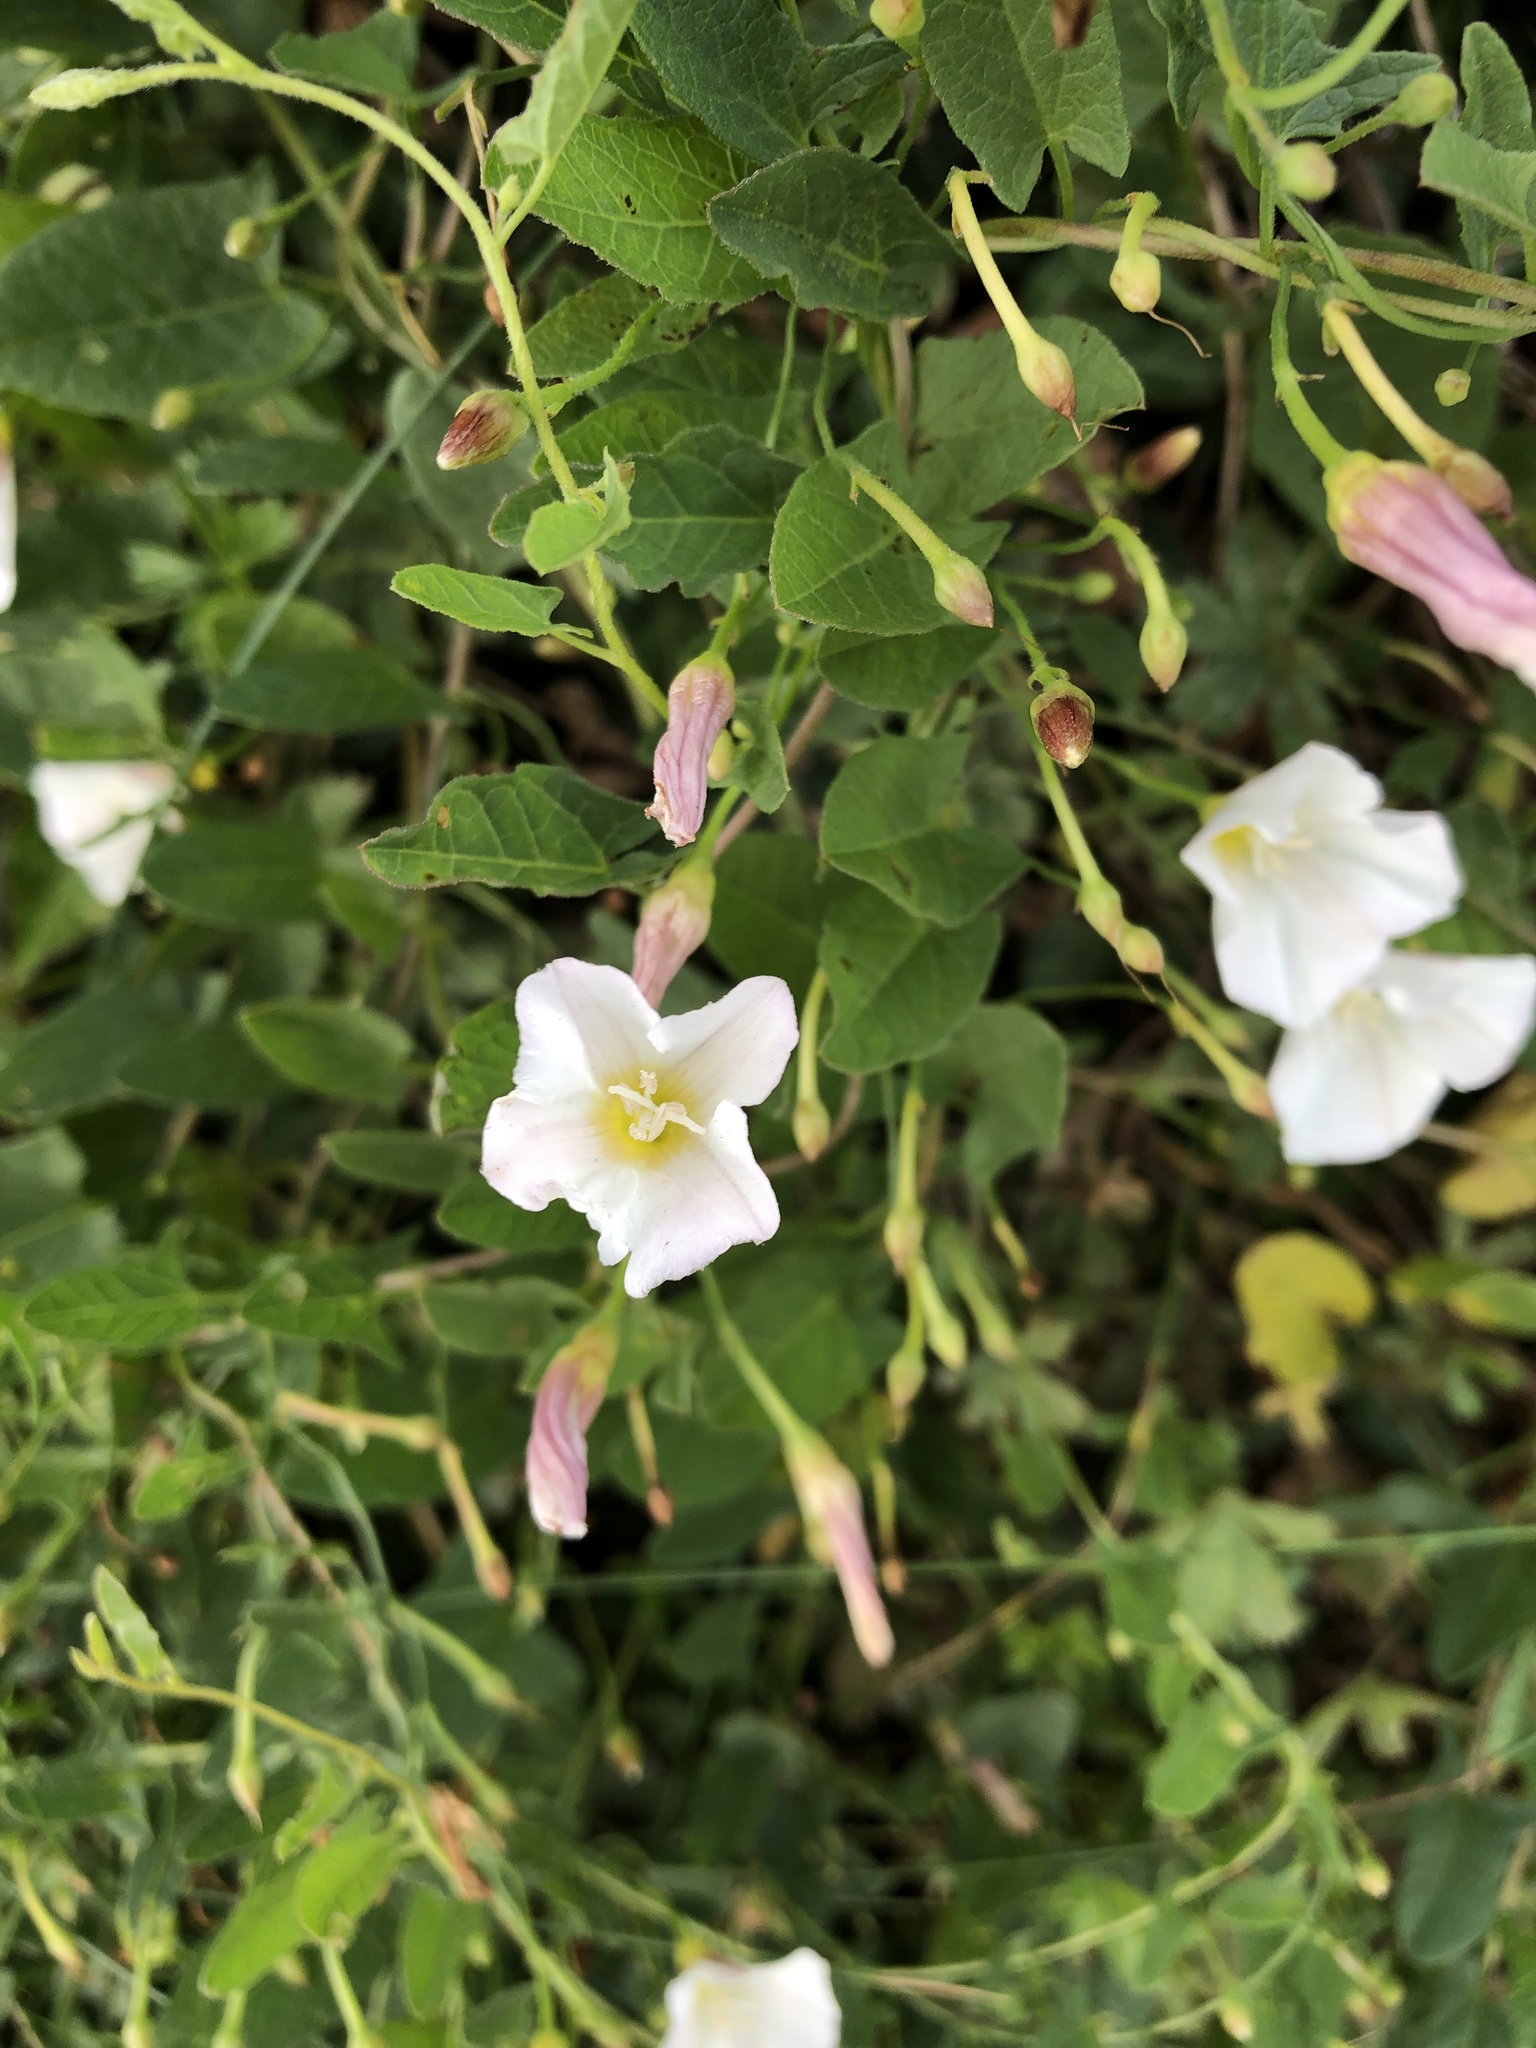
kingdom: Plantae
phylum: Tracheophyta
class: Magnoliopsida
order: Solanales
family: Convolvulaceae
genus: Convolvulus
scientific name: Convolvulus arvensis
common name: Field bindweed
